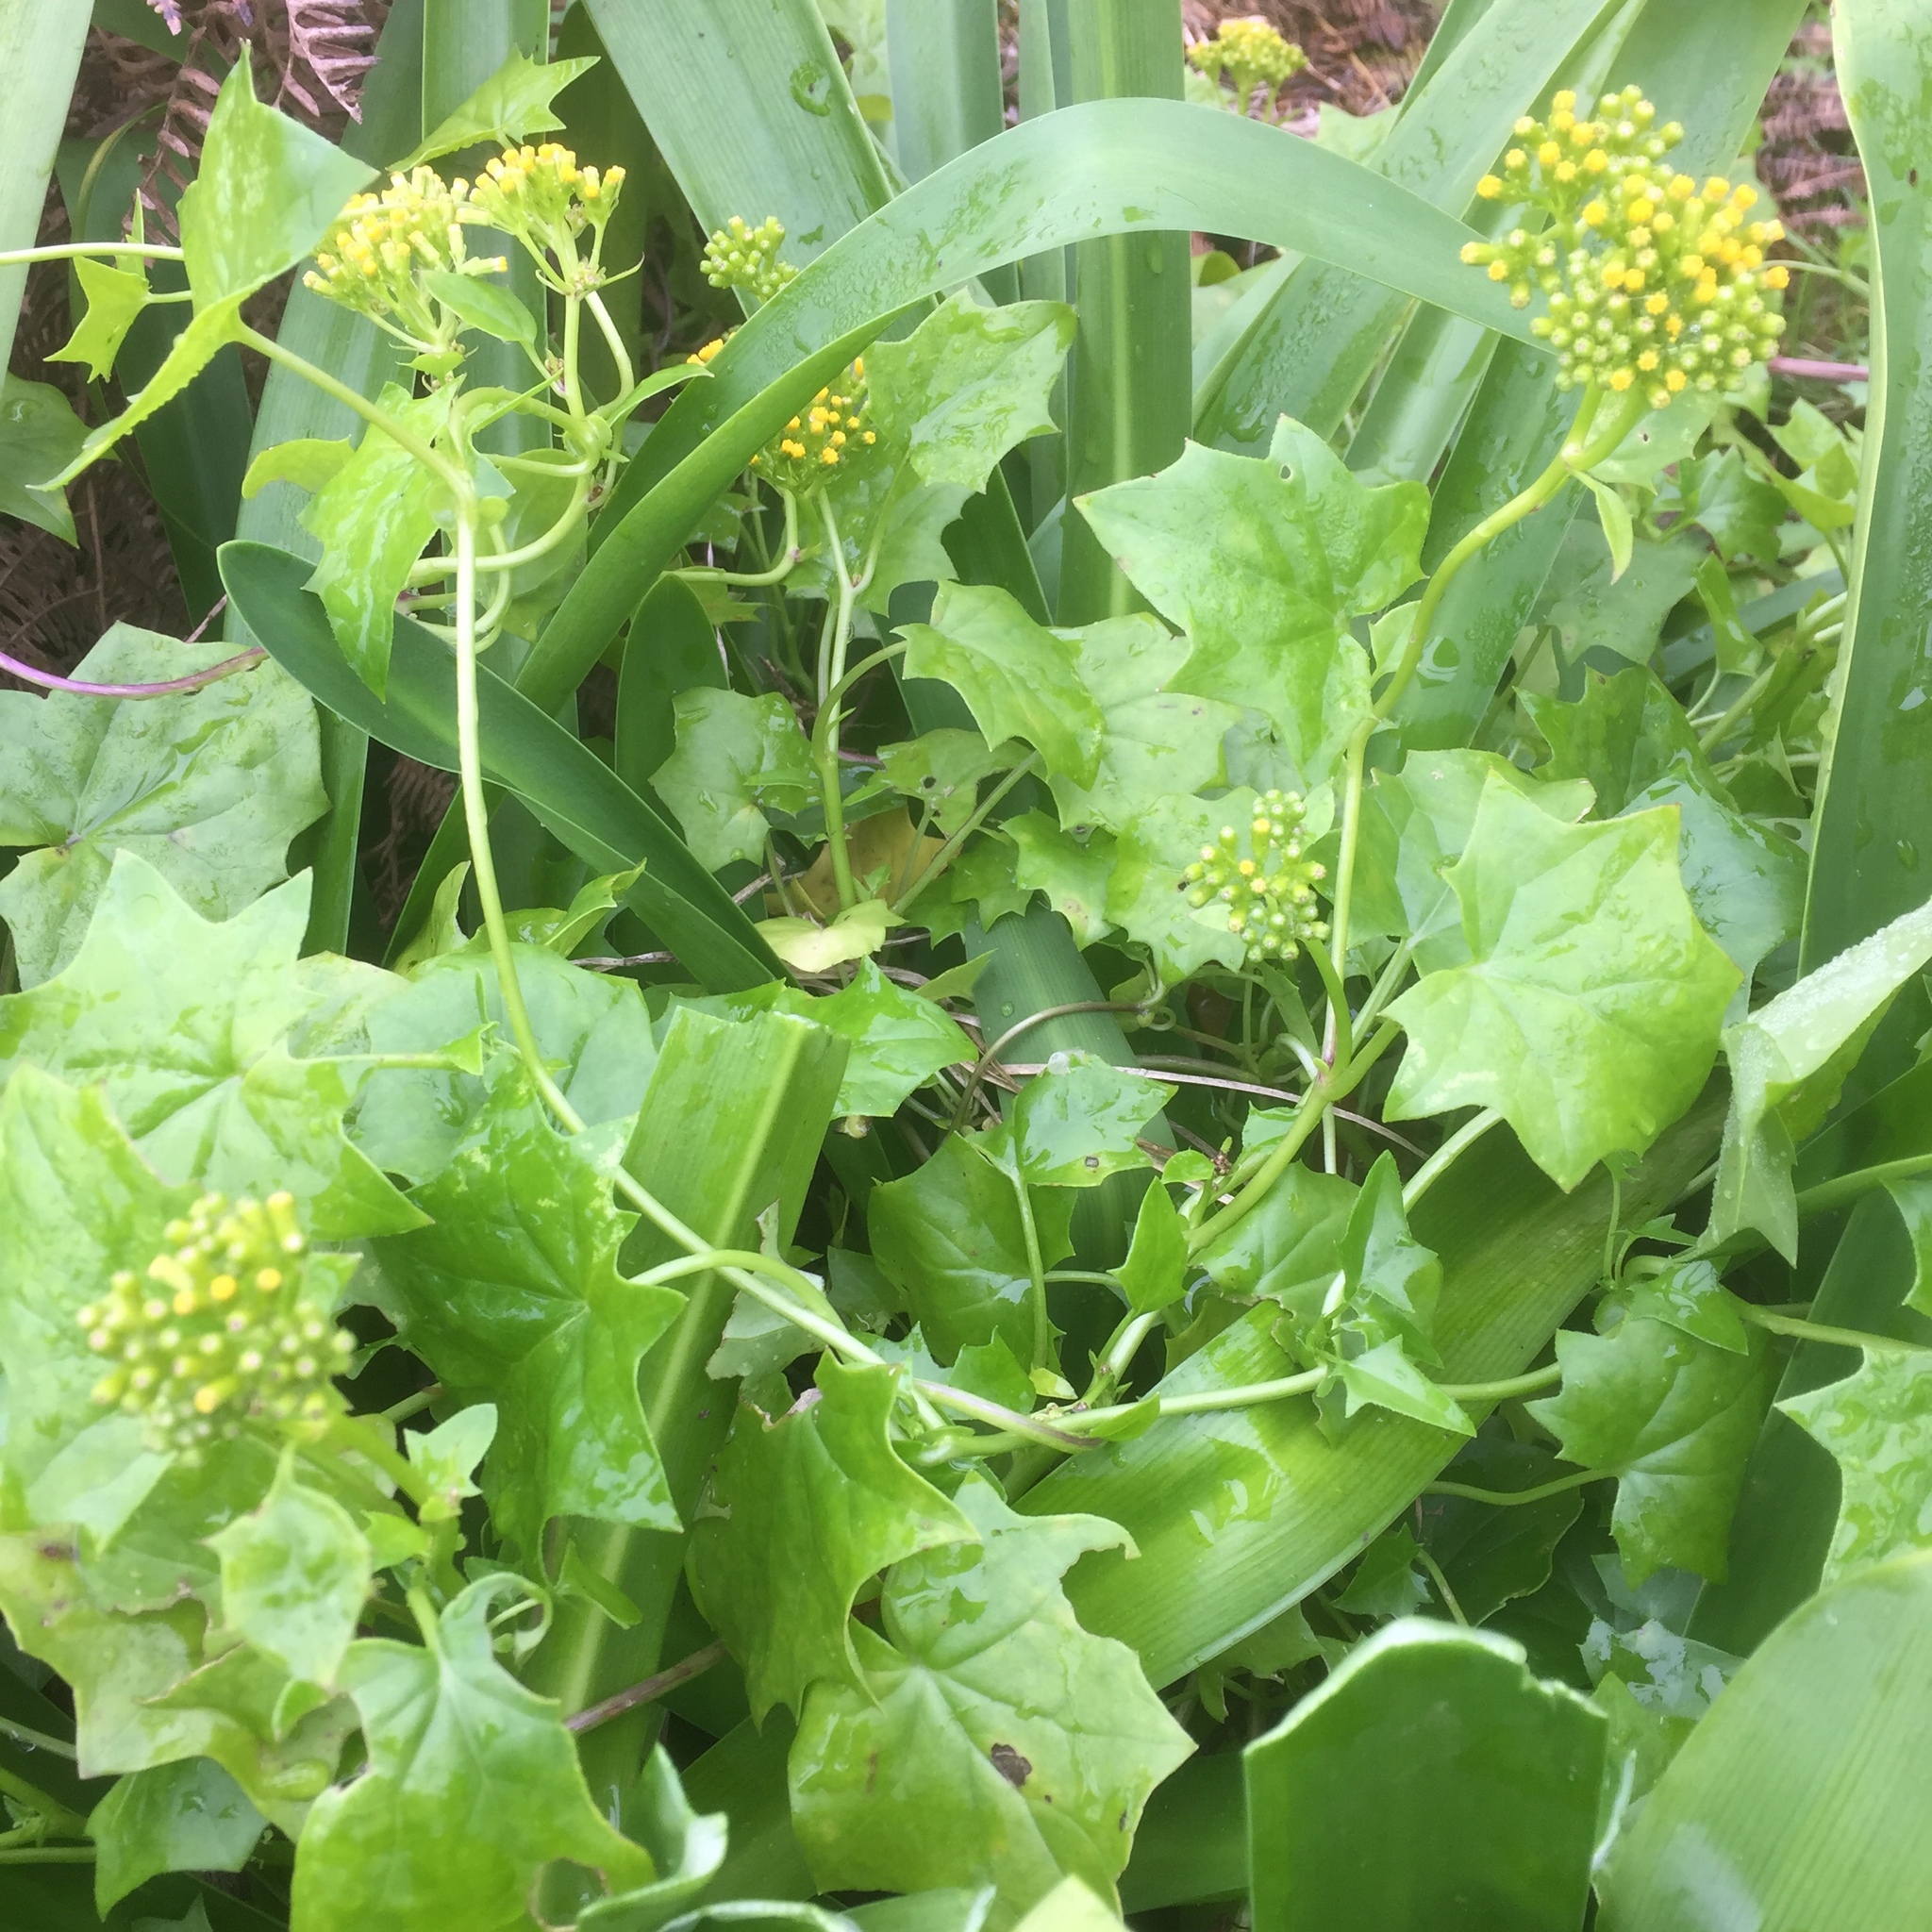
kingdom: Plantae
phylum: Tracheophyta
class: Magnoliopsida
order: Asterales
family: Asteraceae
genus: Delairea
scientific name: Delairea odorata
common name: Cape-ivy
